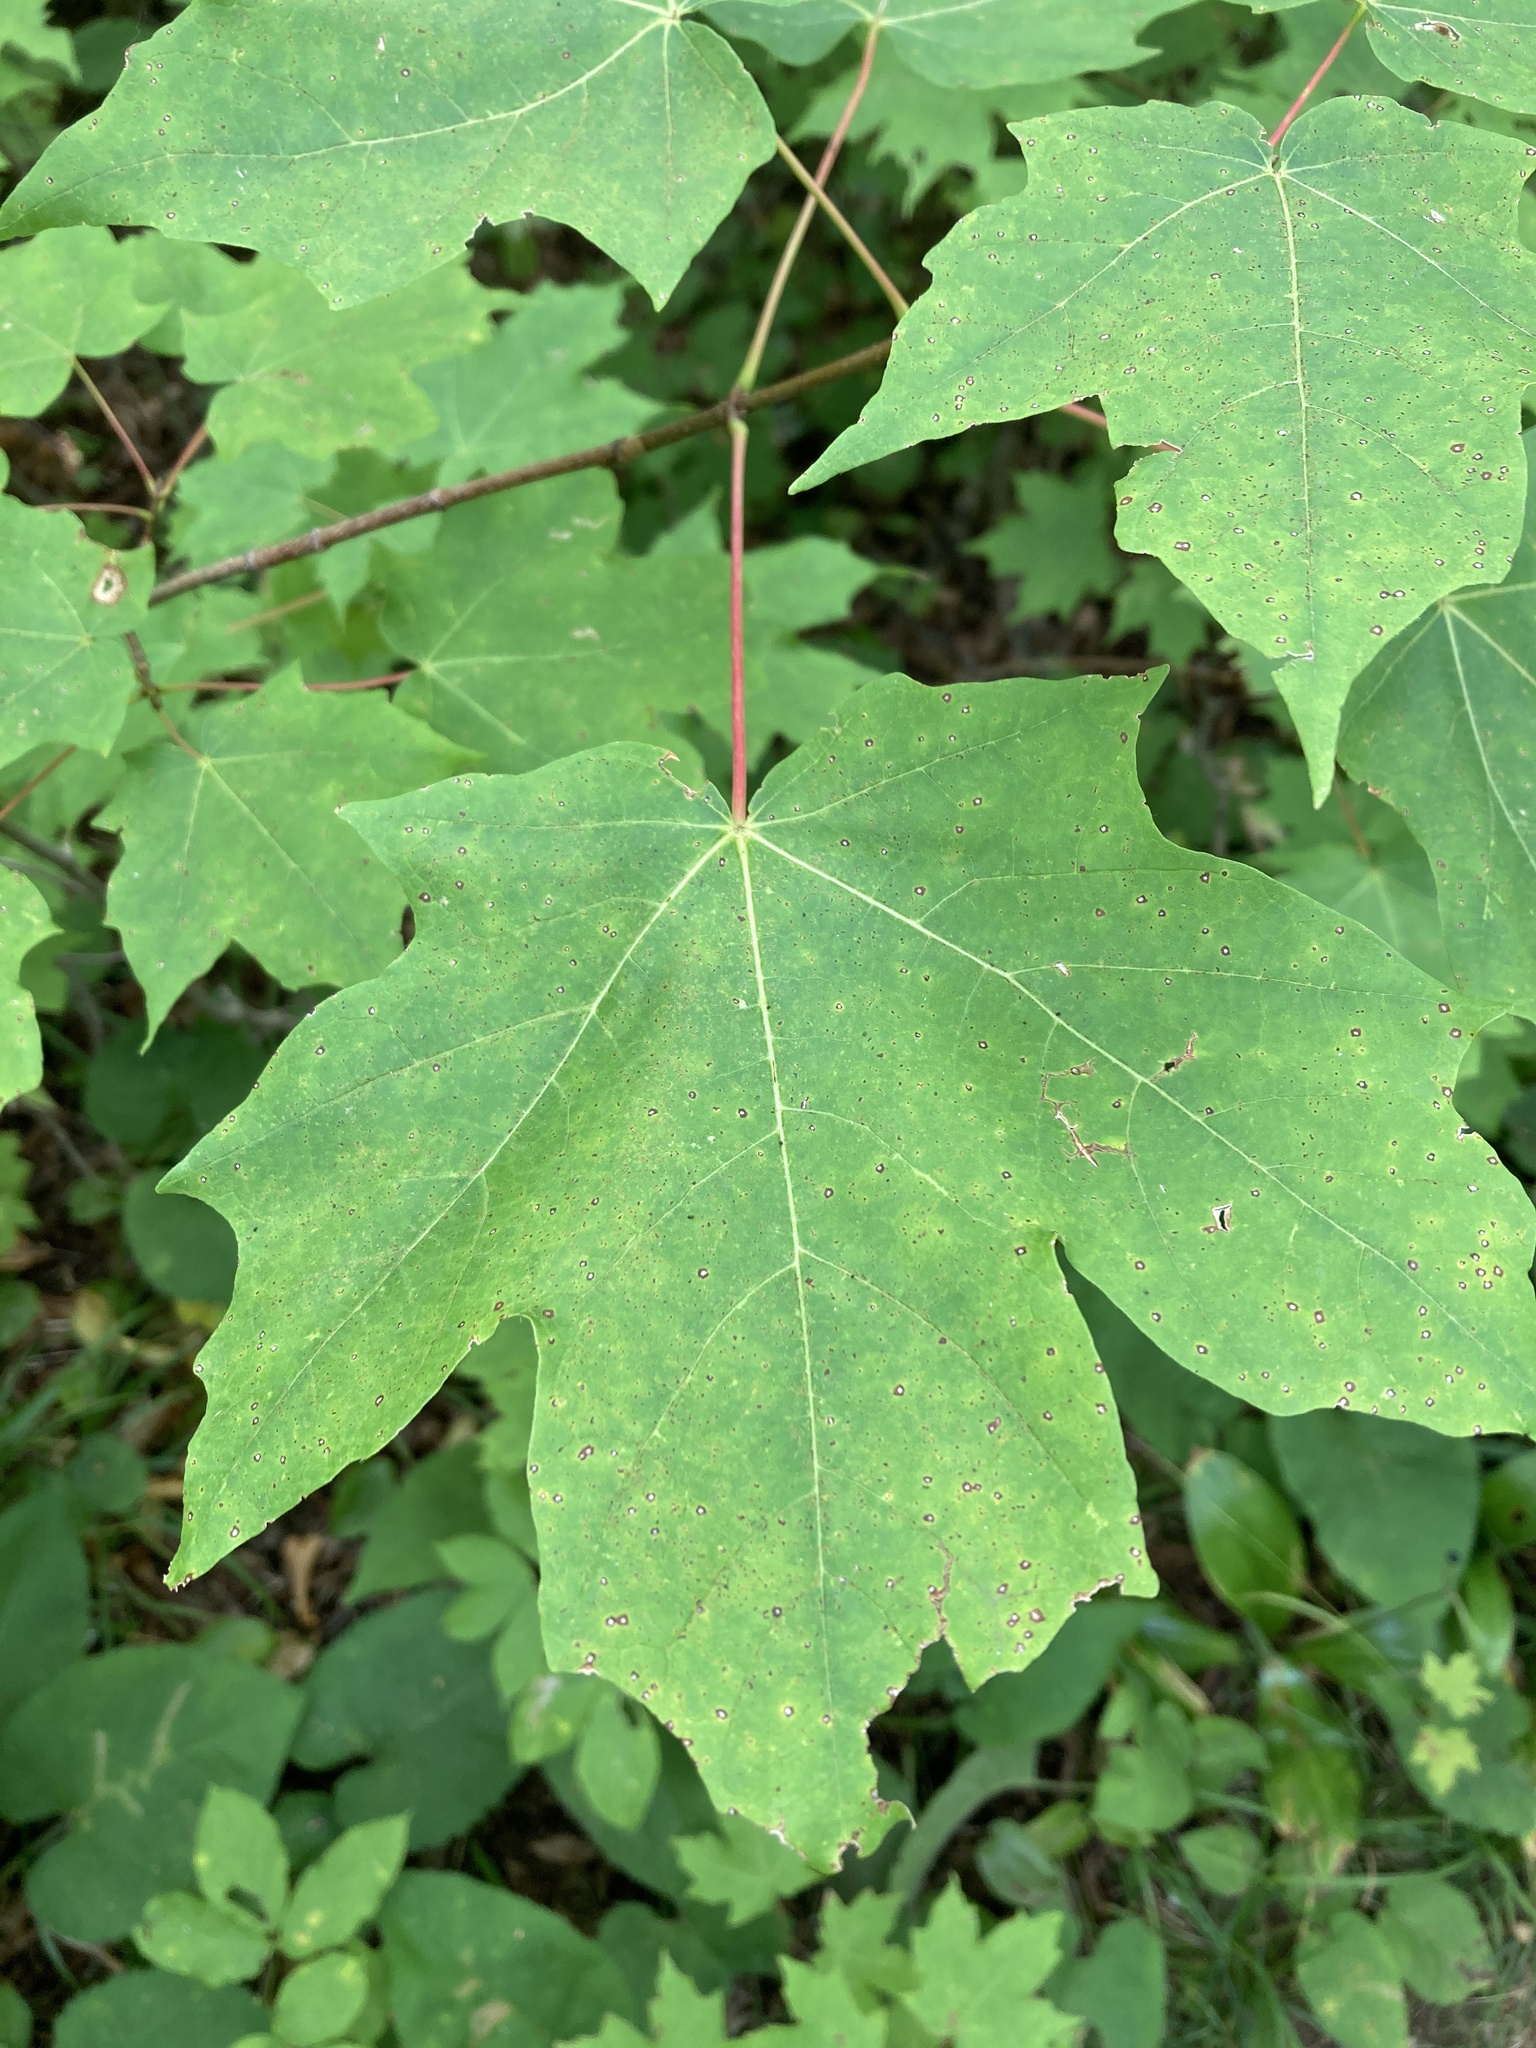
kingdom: Plantae
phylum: Tracheophyta
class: Magnoliopsida
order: Sapindales
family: Sapindaceae
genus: Acer
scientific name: Acer saccharum
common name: Sugar maple
